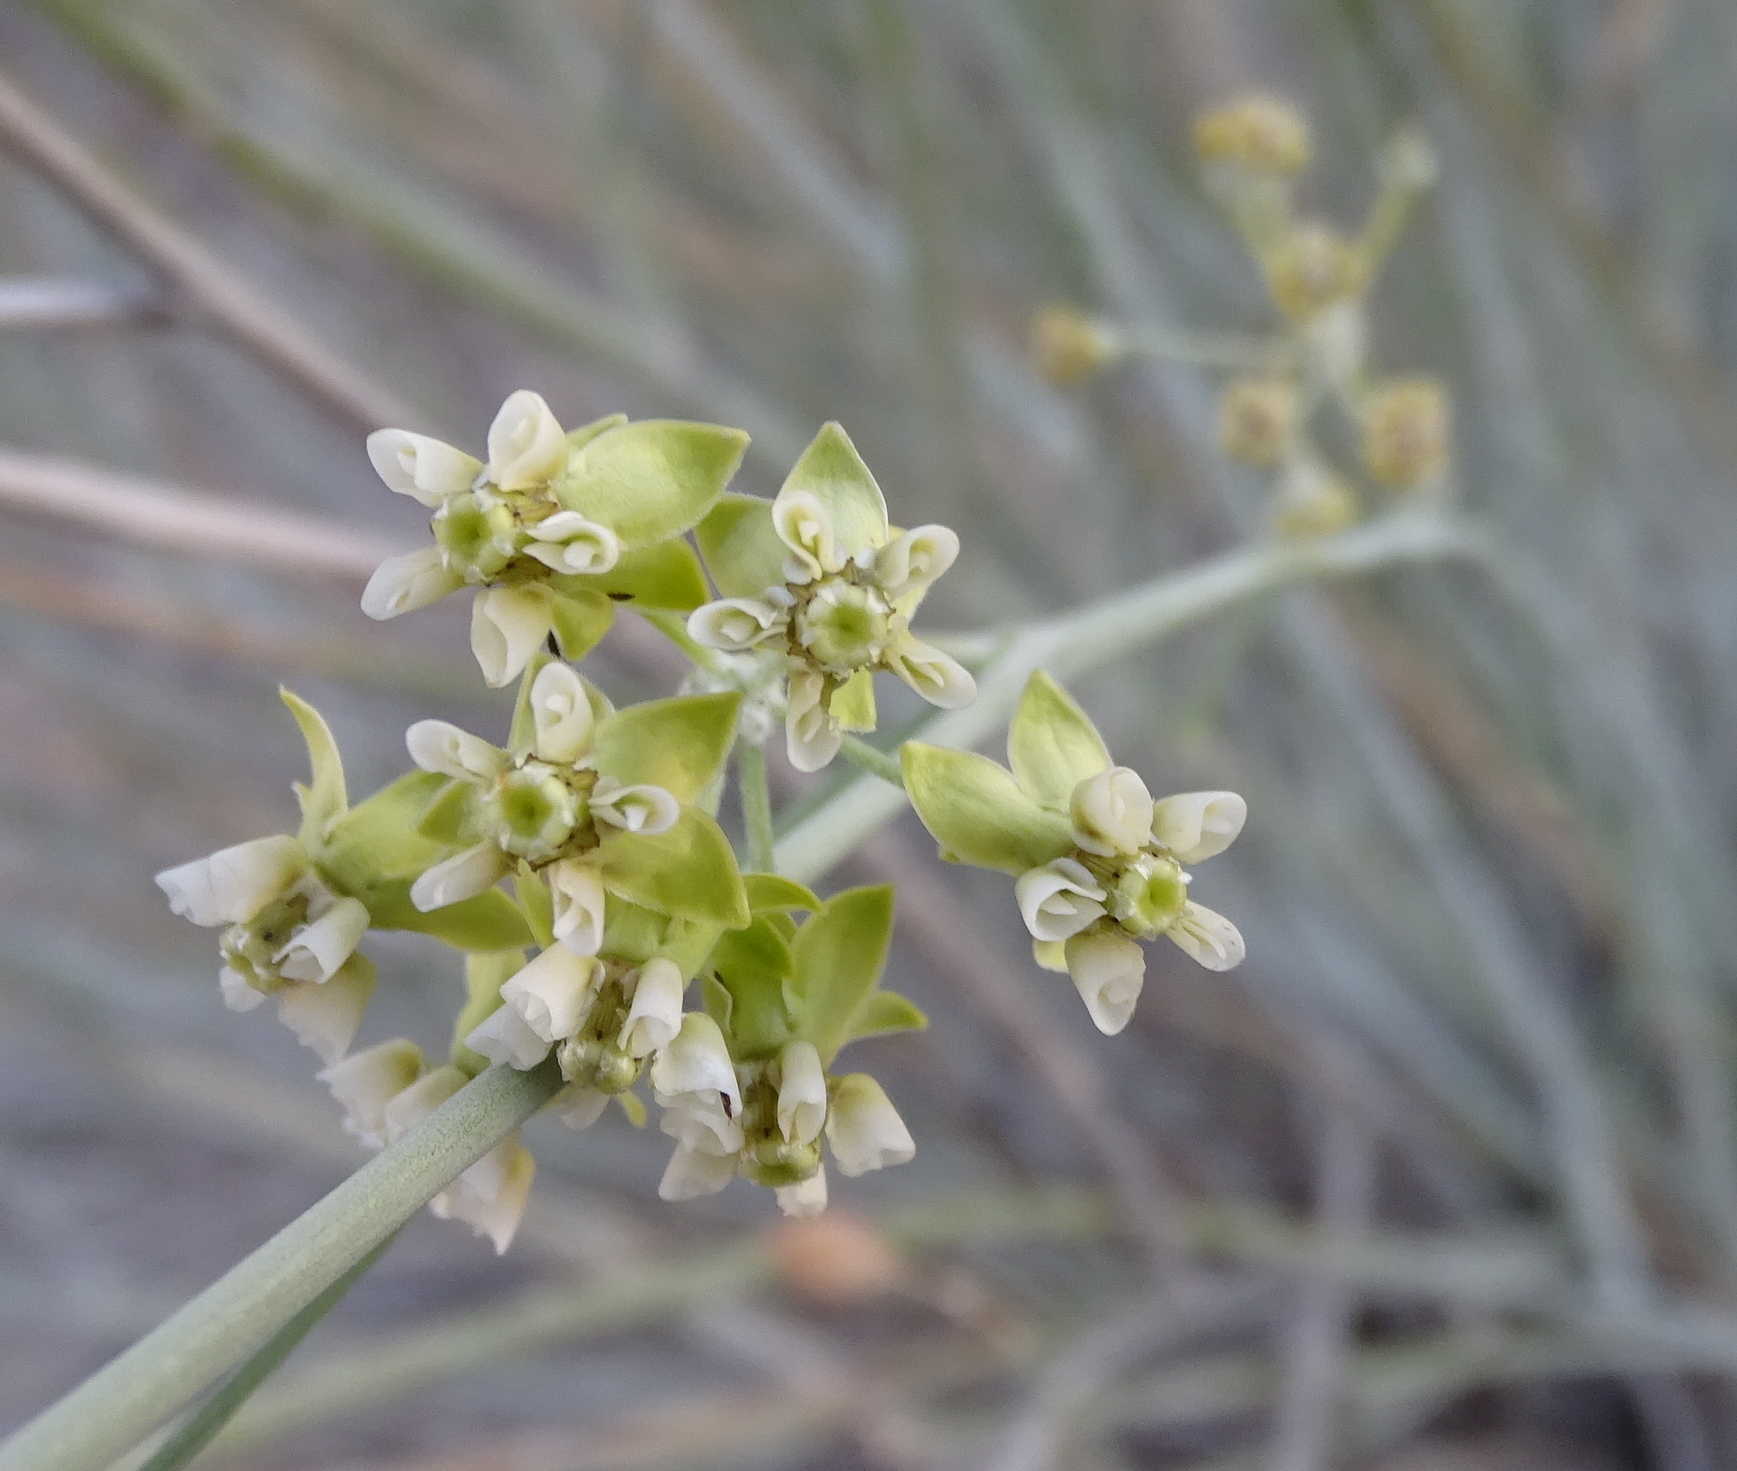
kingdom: Plantae
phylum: Tracheophyta
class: Magnoliopsida
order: Gentianales
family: Apocynaceae
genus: Gomphocarpus
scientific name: Gomphocarpus filiformis
